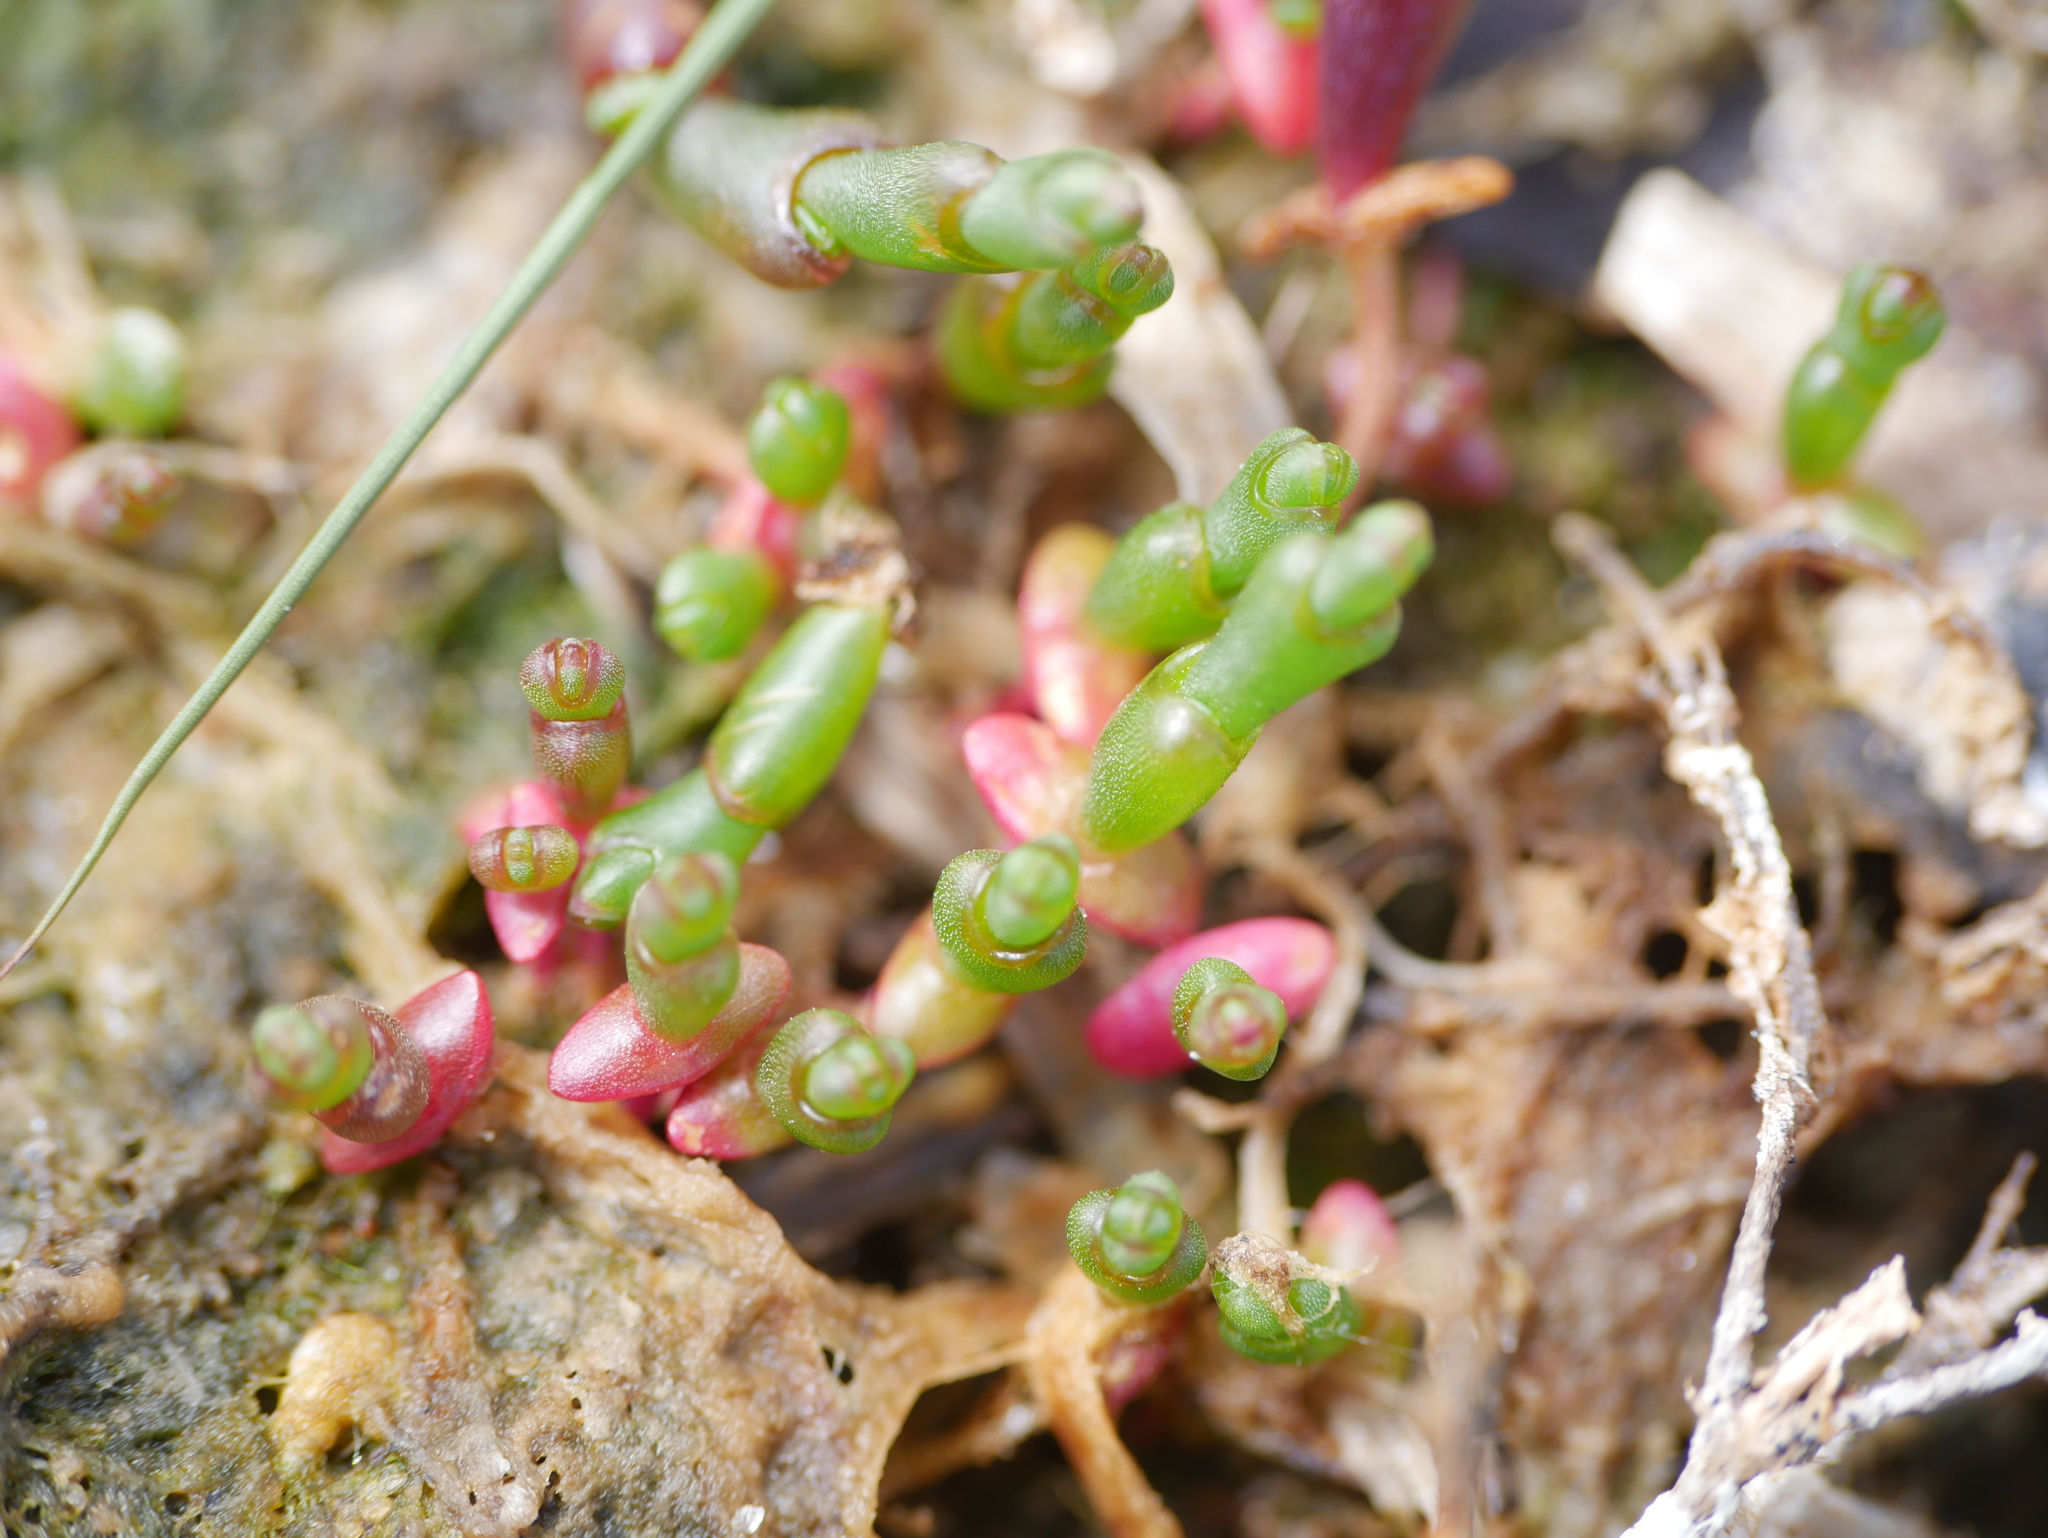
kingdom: Plantae
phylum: Tracheophyta
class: Magnoliopsida
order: Caryophyllales
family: Amaranthaceae
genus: Salicornia
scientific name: Salicornia europaea
